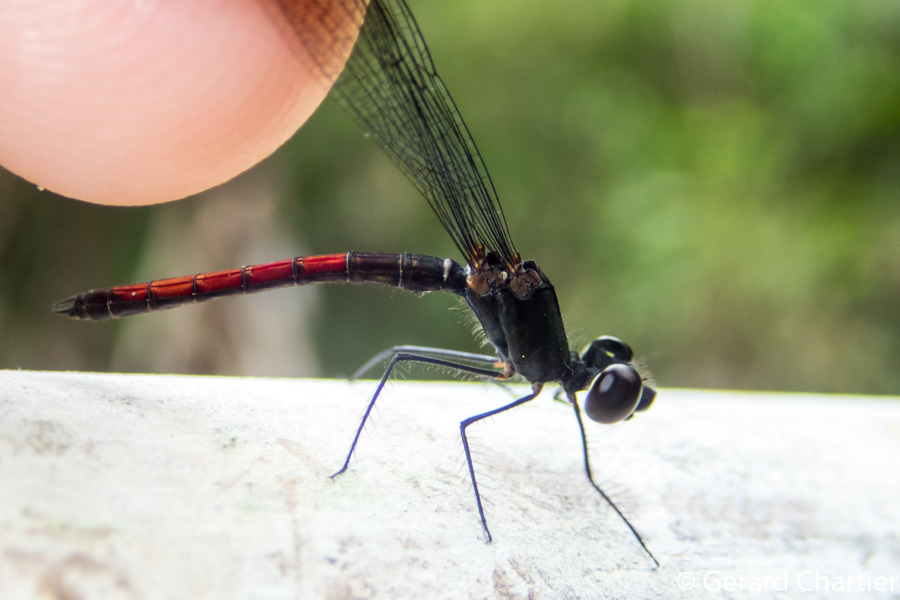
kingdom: Animalia
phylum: Arthropoda
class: Insecta
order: Odonata
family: Chlorocyphidae
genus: Libellago
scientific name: Libellago hyalina
